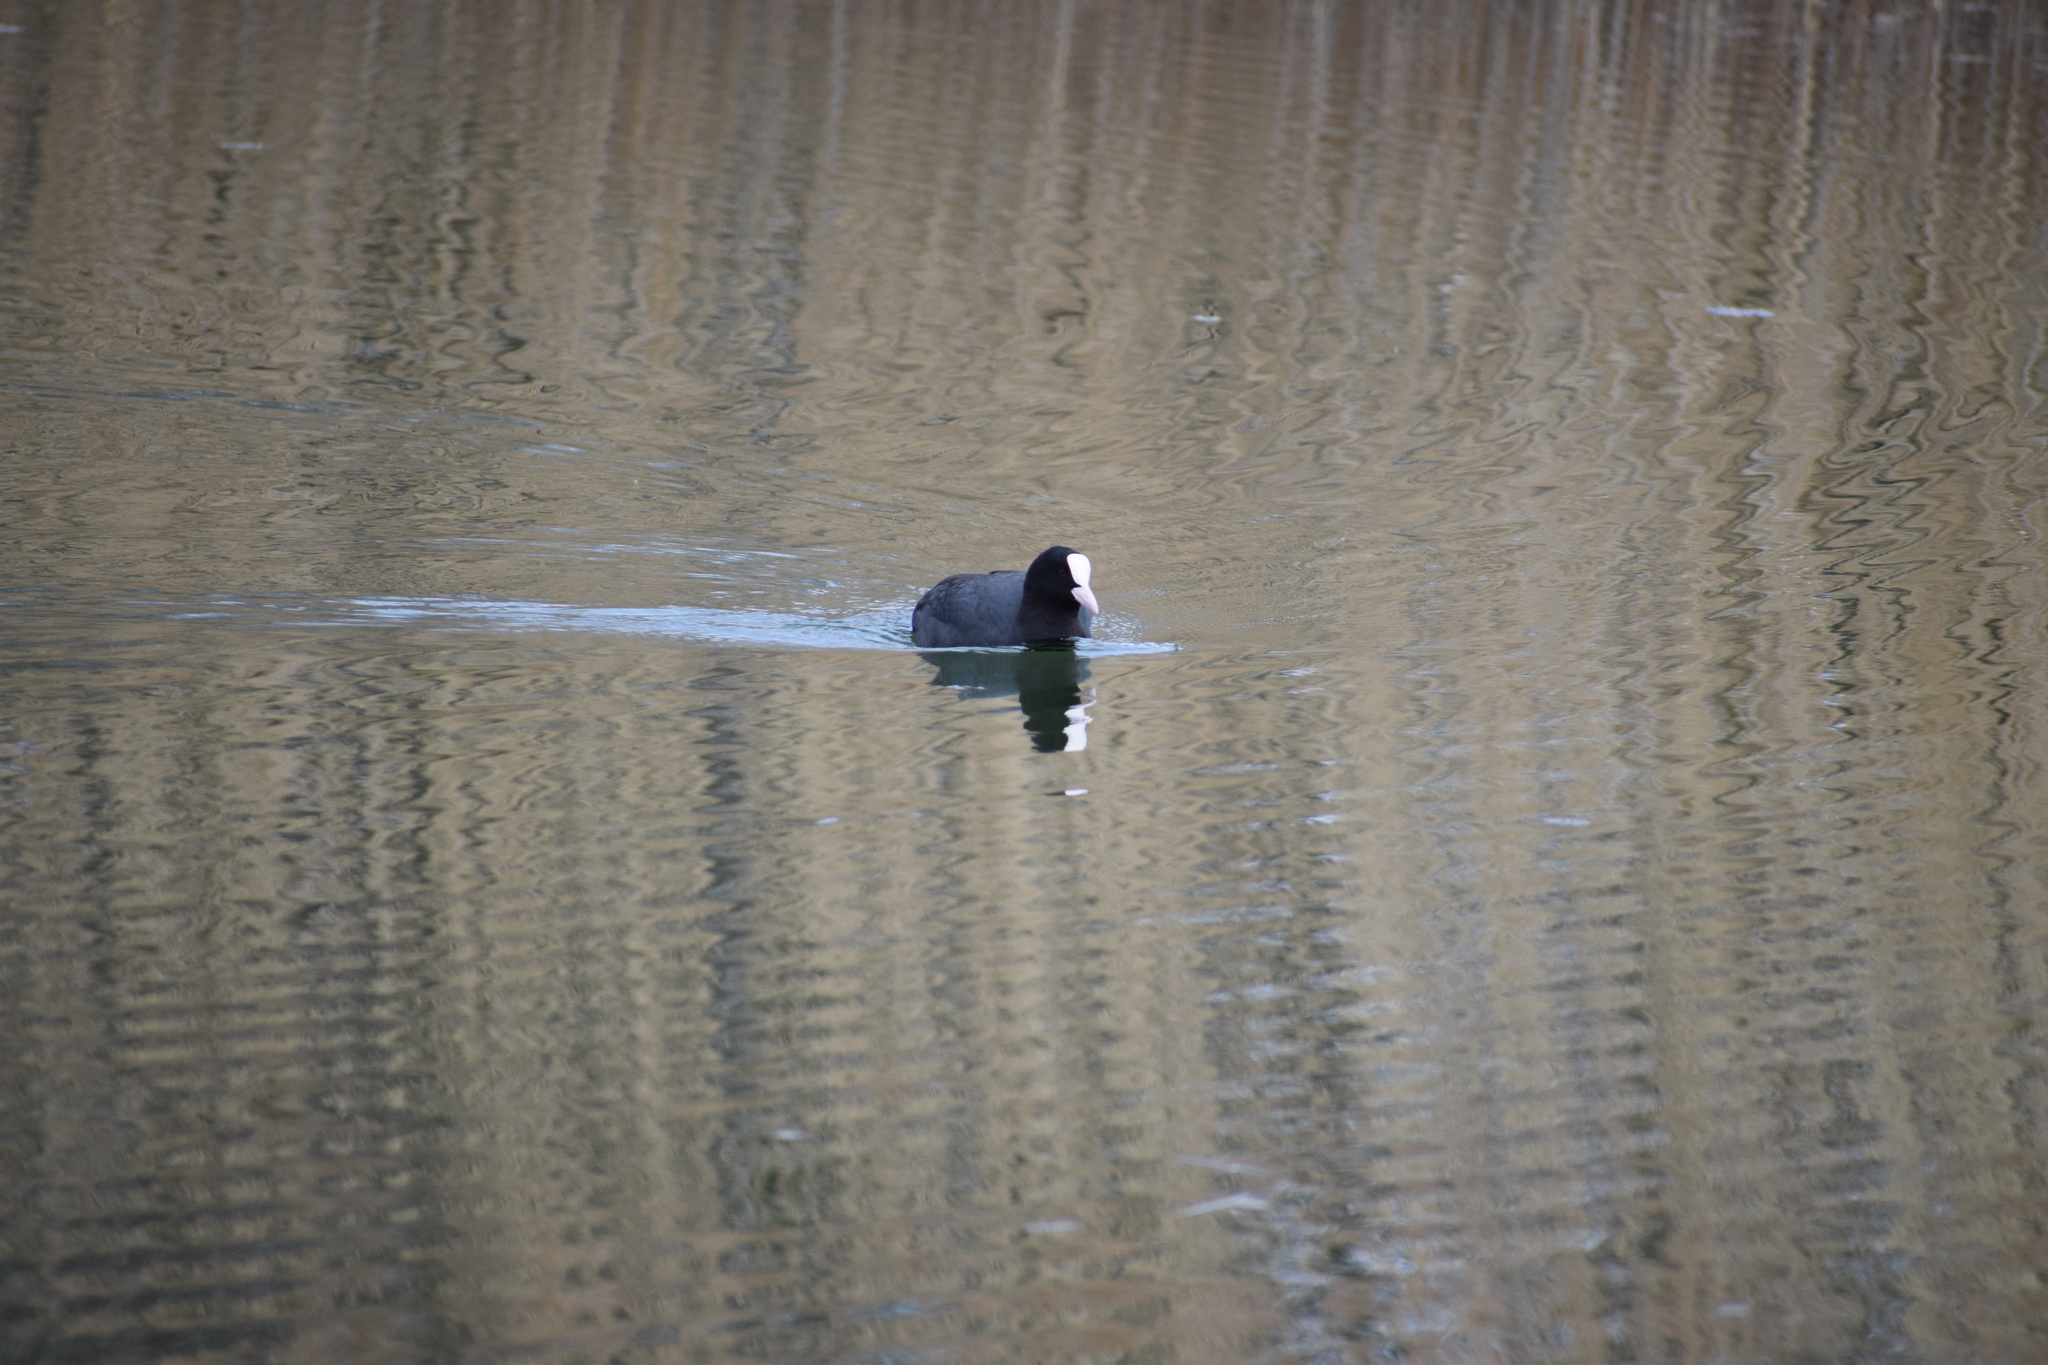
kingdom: Animalia
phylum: Chordata
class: Aves
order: Gruiformes
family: Rallidae
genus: Fulica
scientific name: Fulica atra
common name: Eurasian coot
